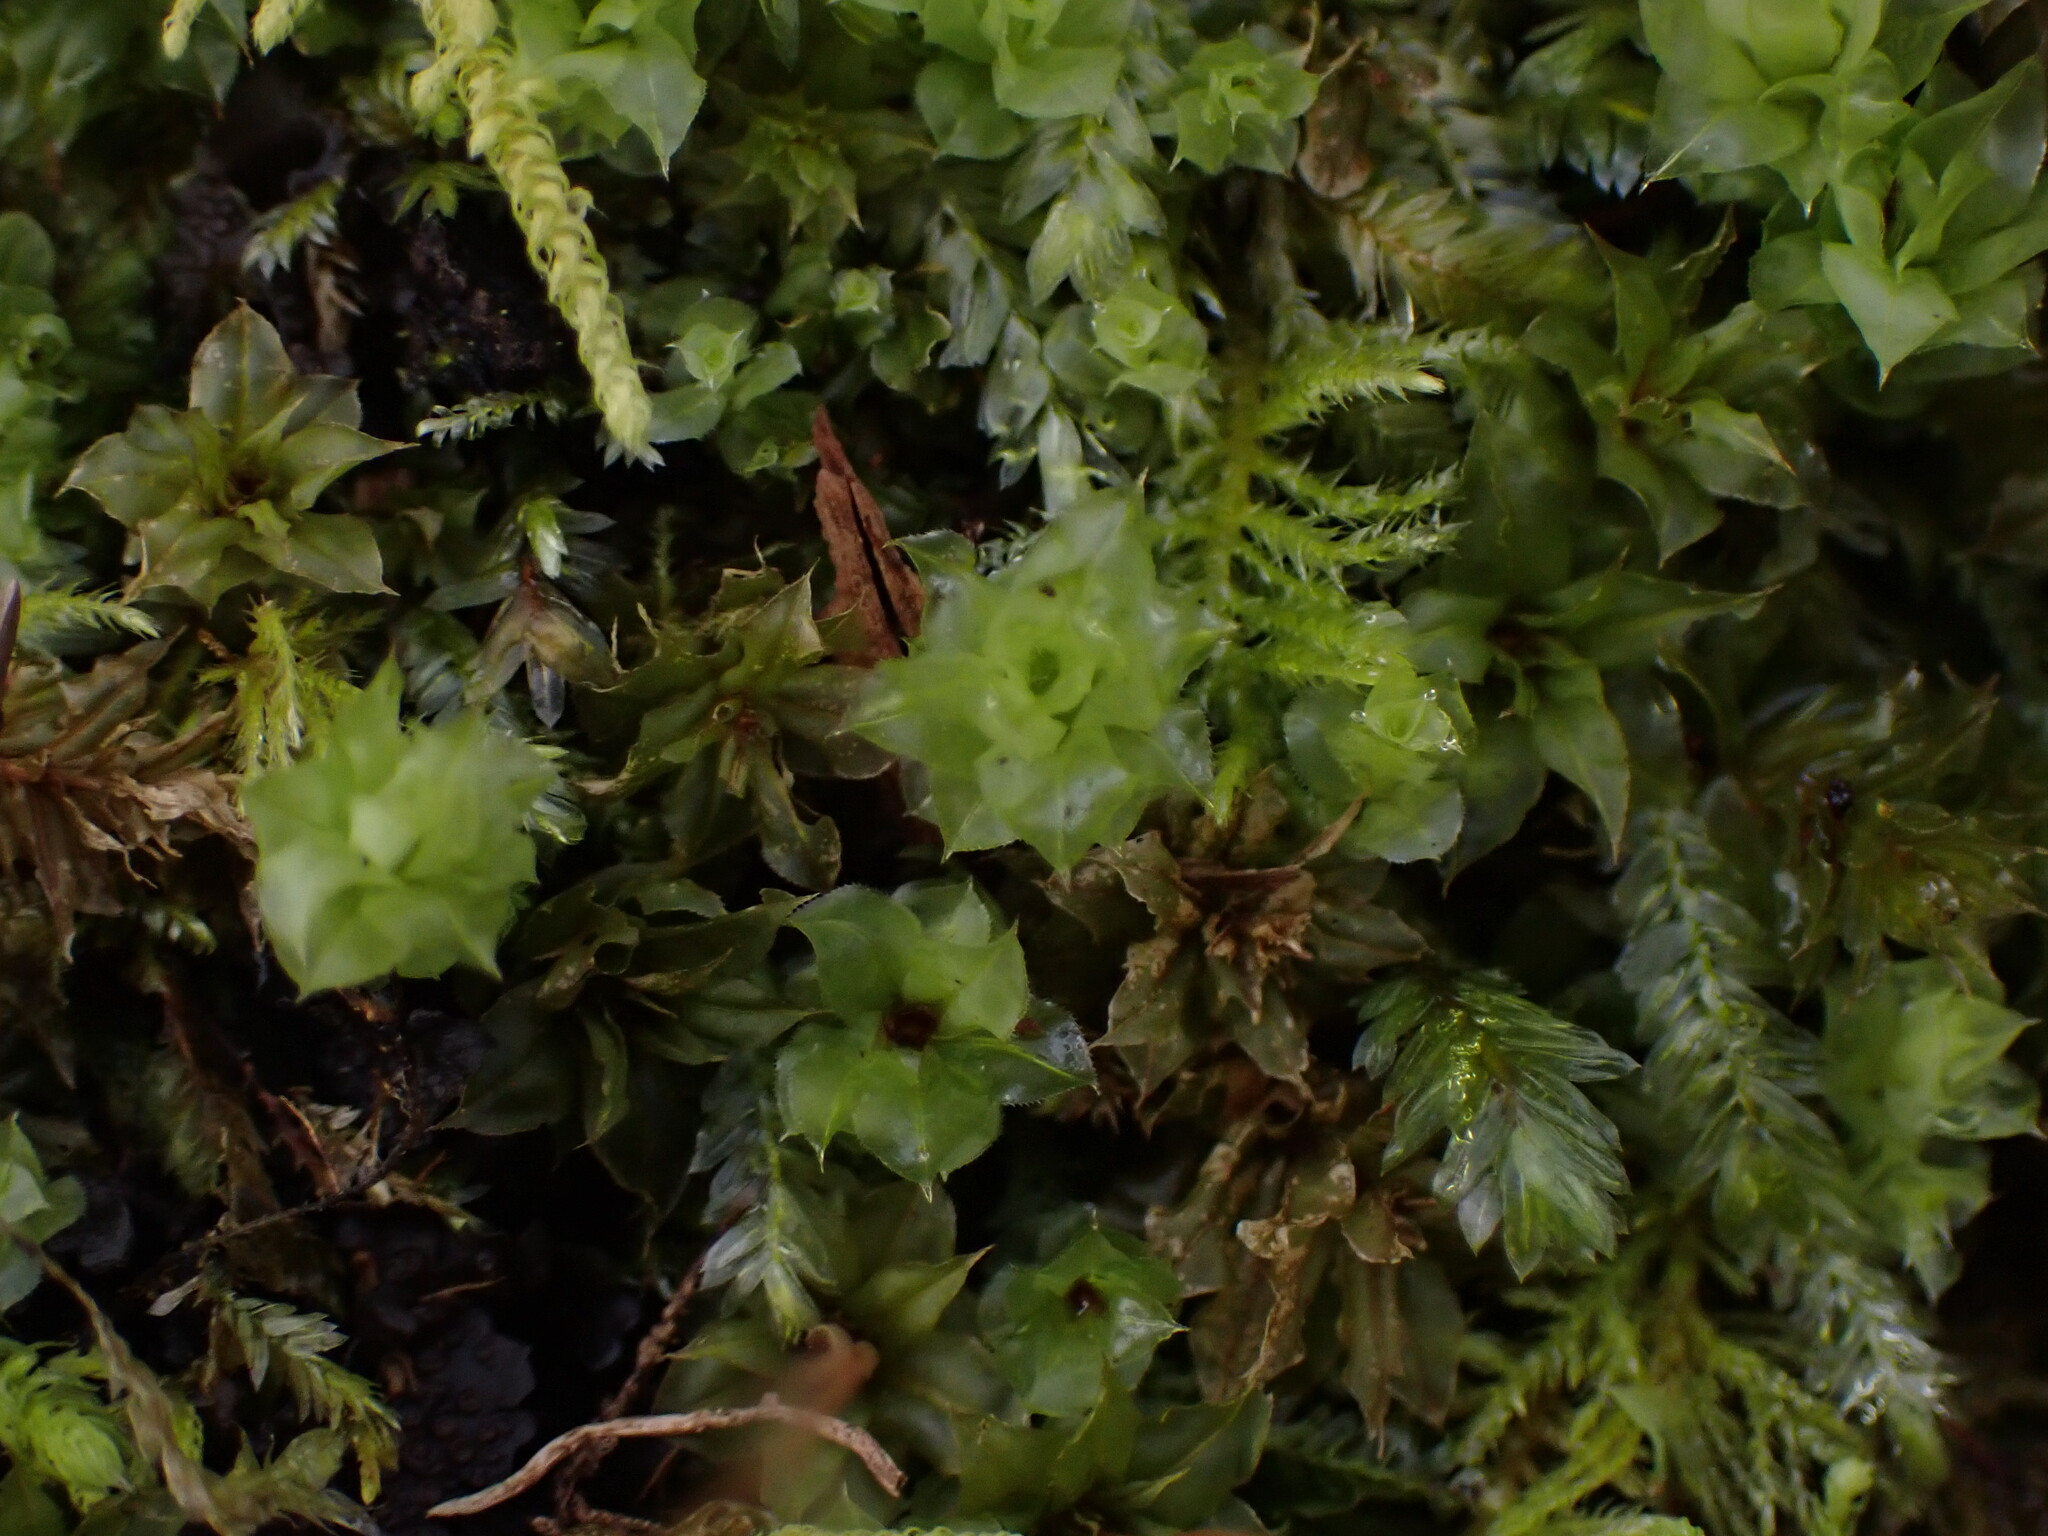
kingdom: Plantae
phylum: Bryophyta
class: Bryopsida
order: Bryales
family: Mniaceae
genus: Plagiomnium
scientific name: Plagiomnium venustum
